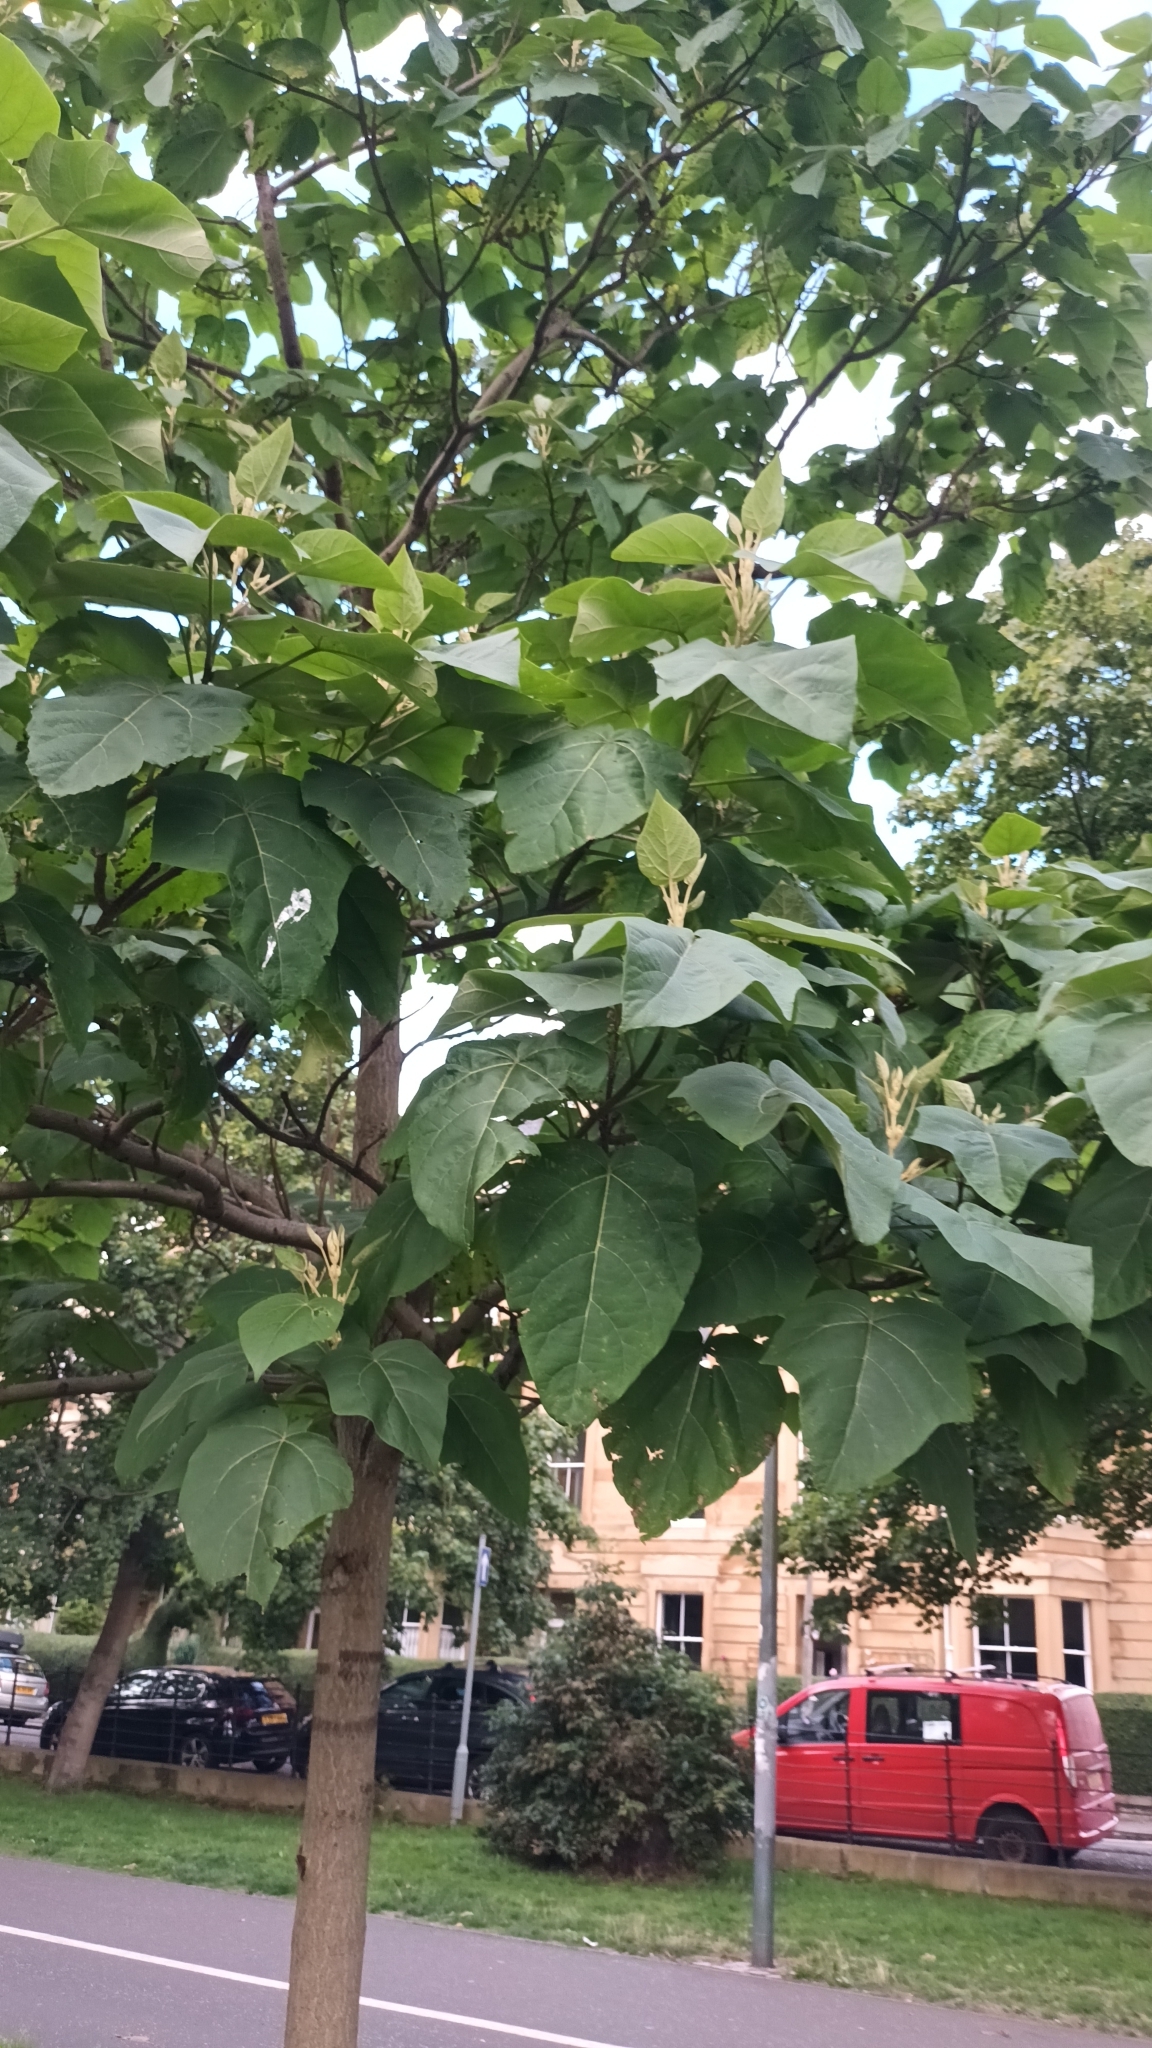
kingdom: Plantae
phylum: Tracheophyta
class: Magnoliopsida
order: Lamiales
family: Paulowniaceae
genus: Paulownia
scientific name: Paulownia tomentosa
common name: Foxglove-tree
